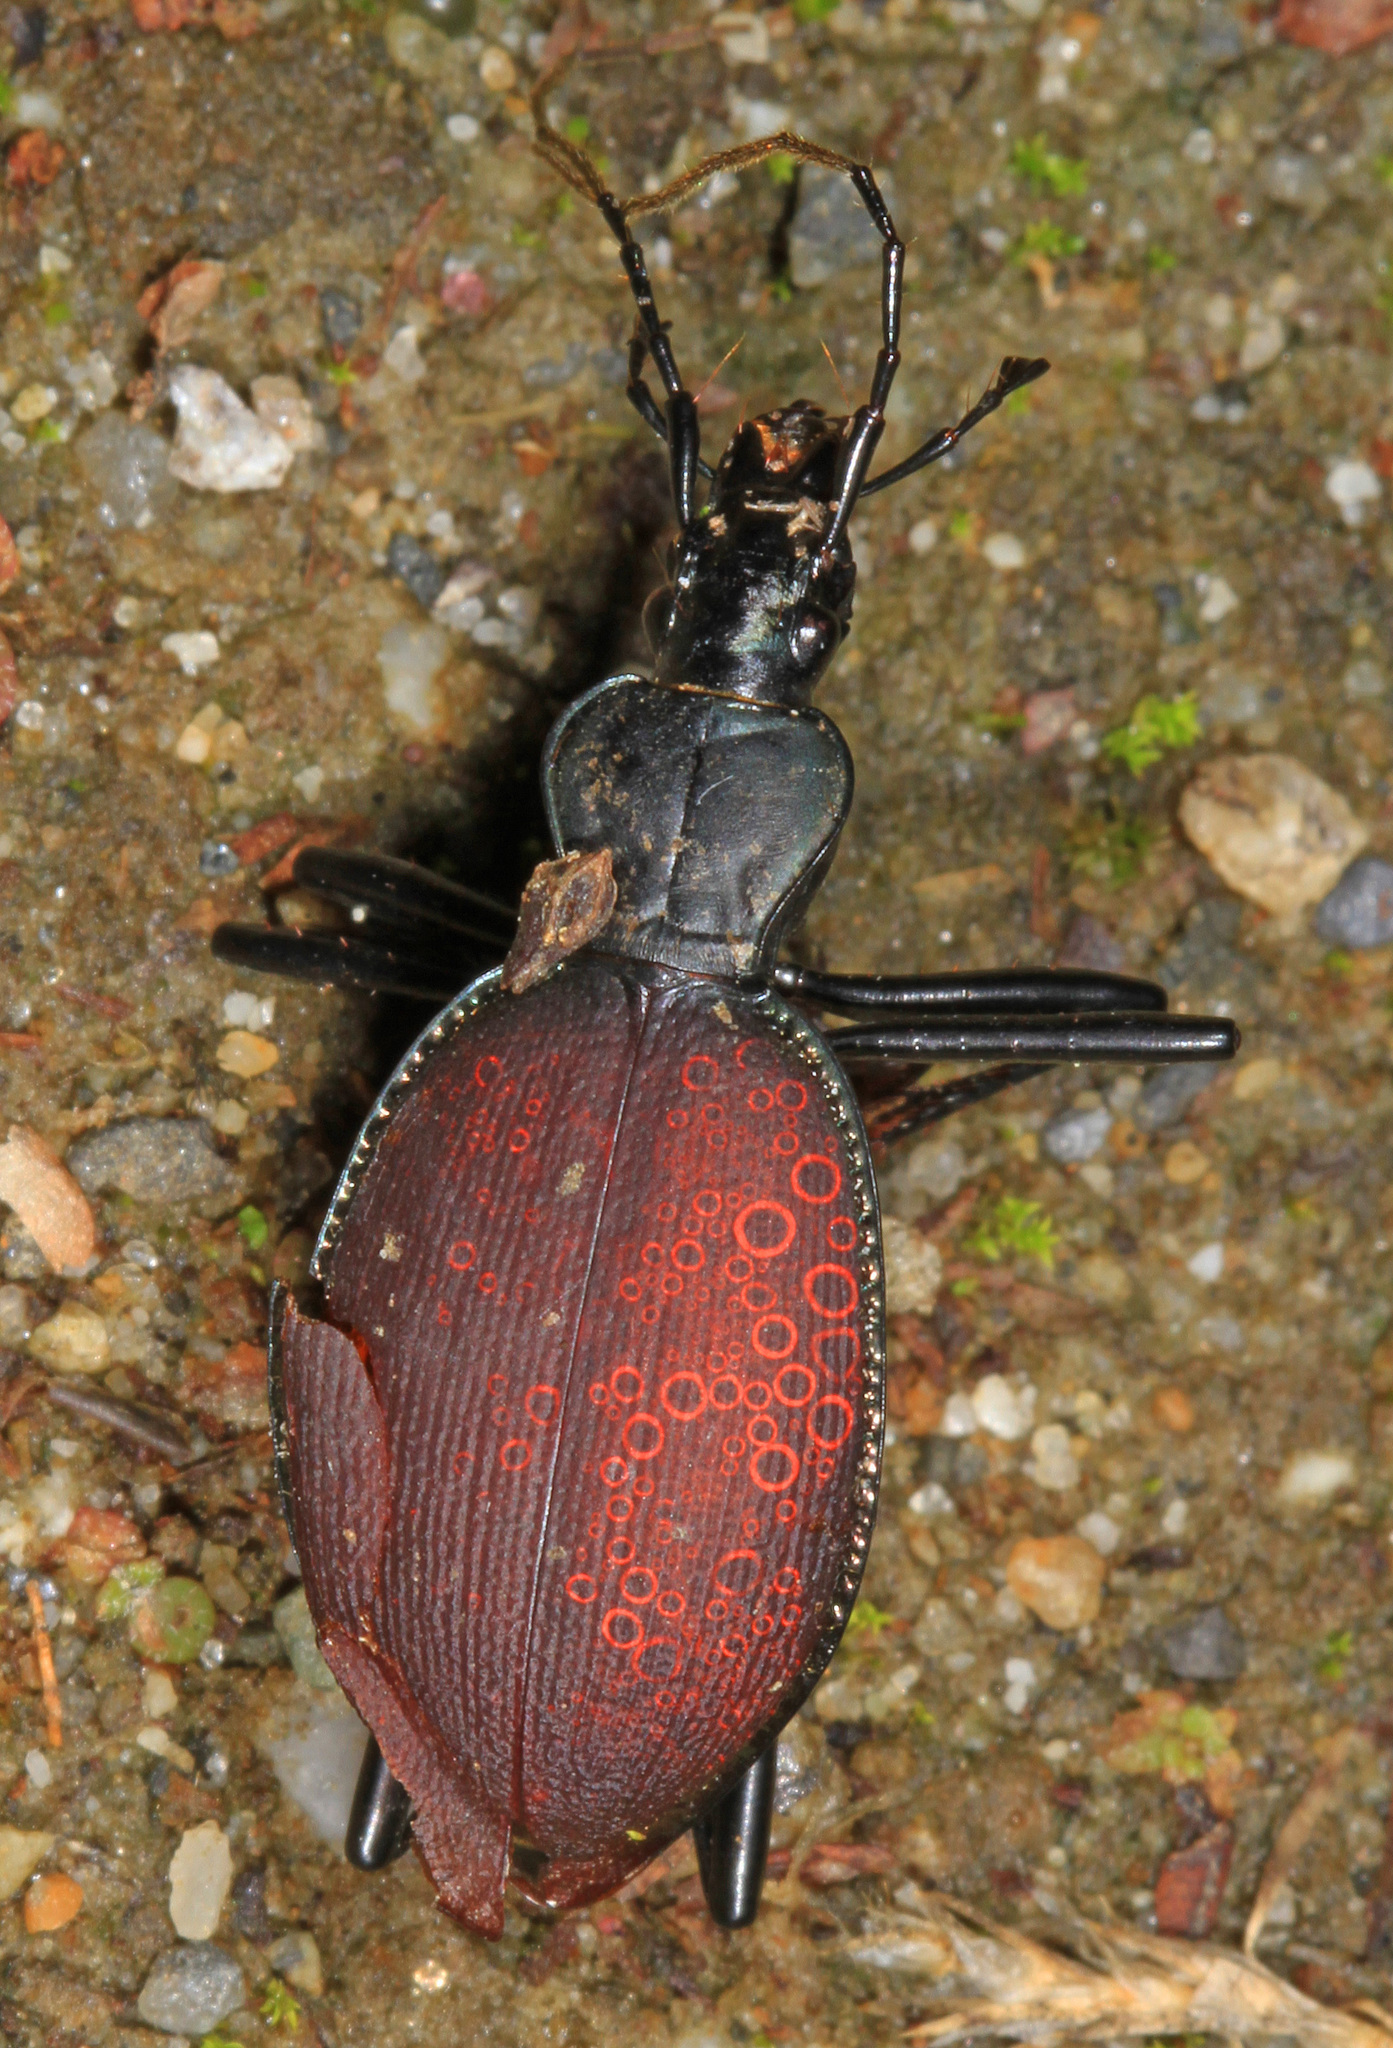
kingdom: Animalia
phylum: Arthropoda
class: Insecta
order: Coleoptera
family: Carabidae
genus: Scaphinotus
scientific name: Scaphinotus angusticollis
